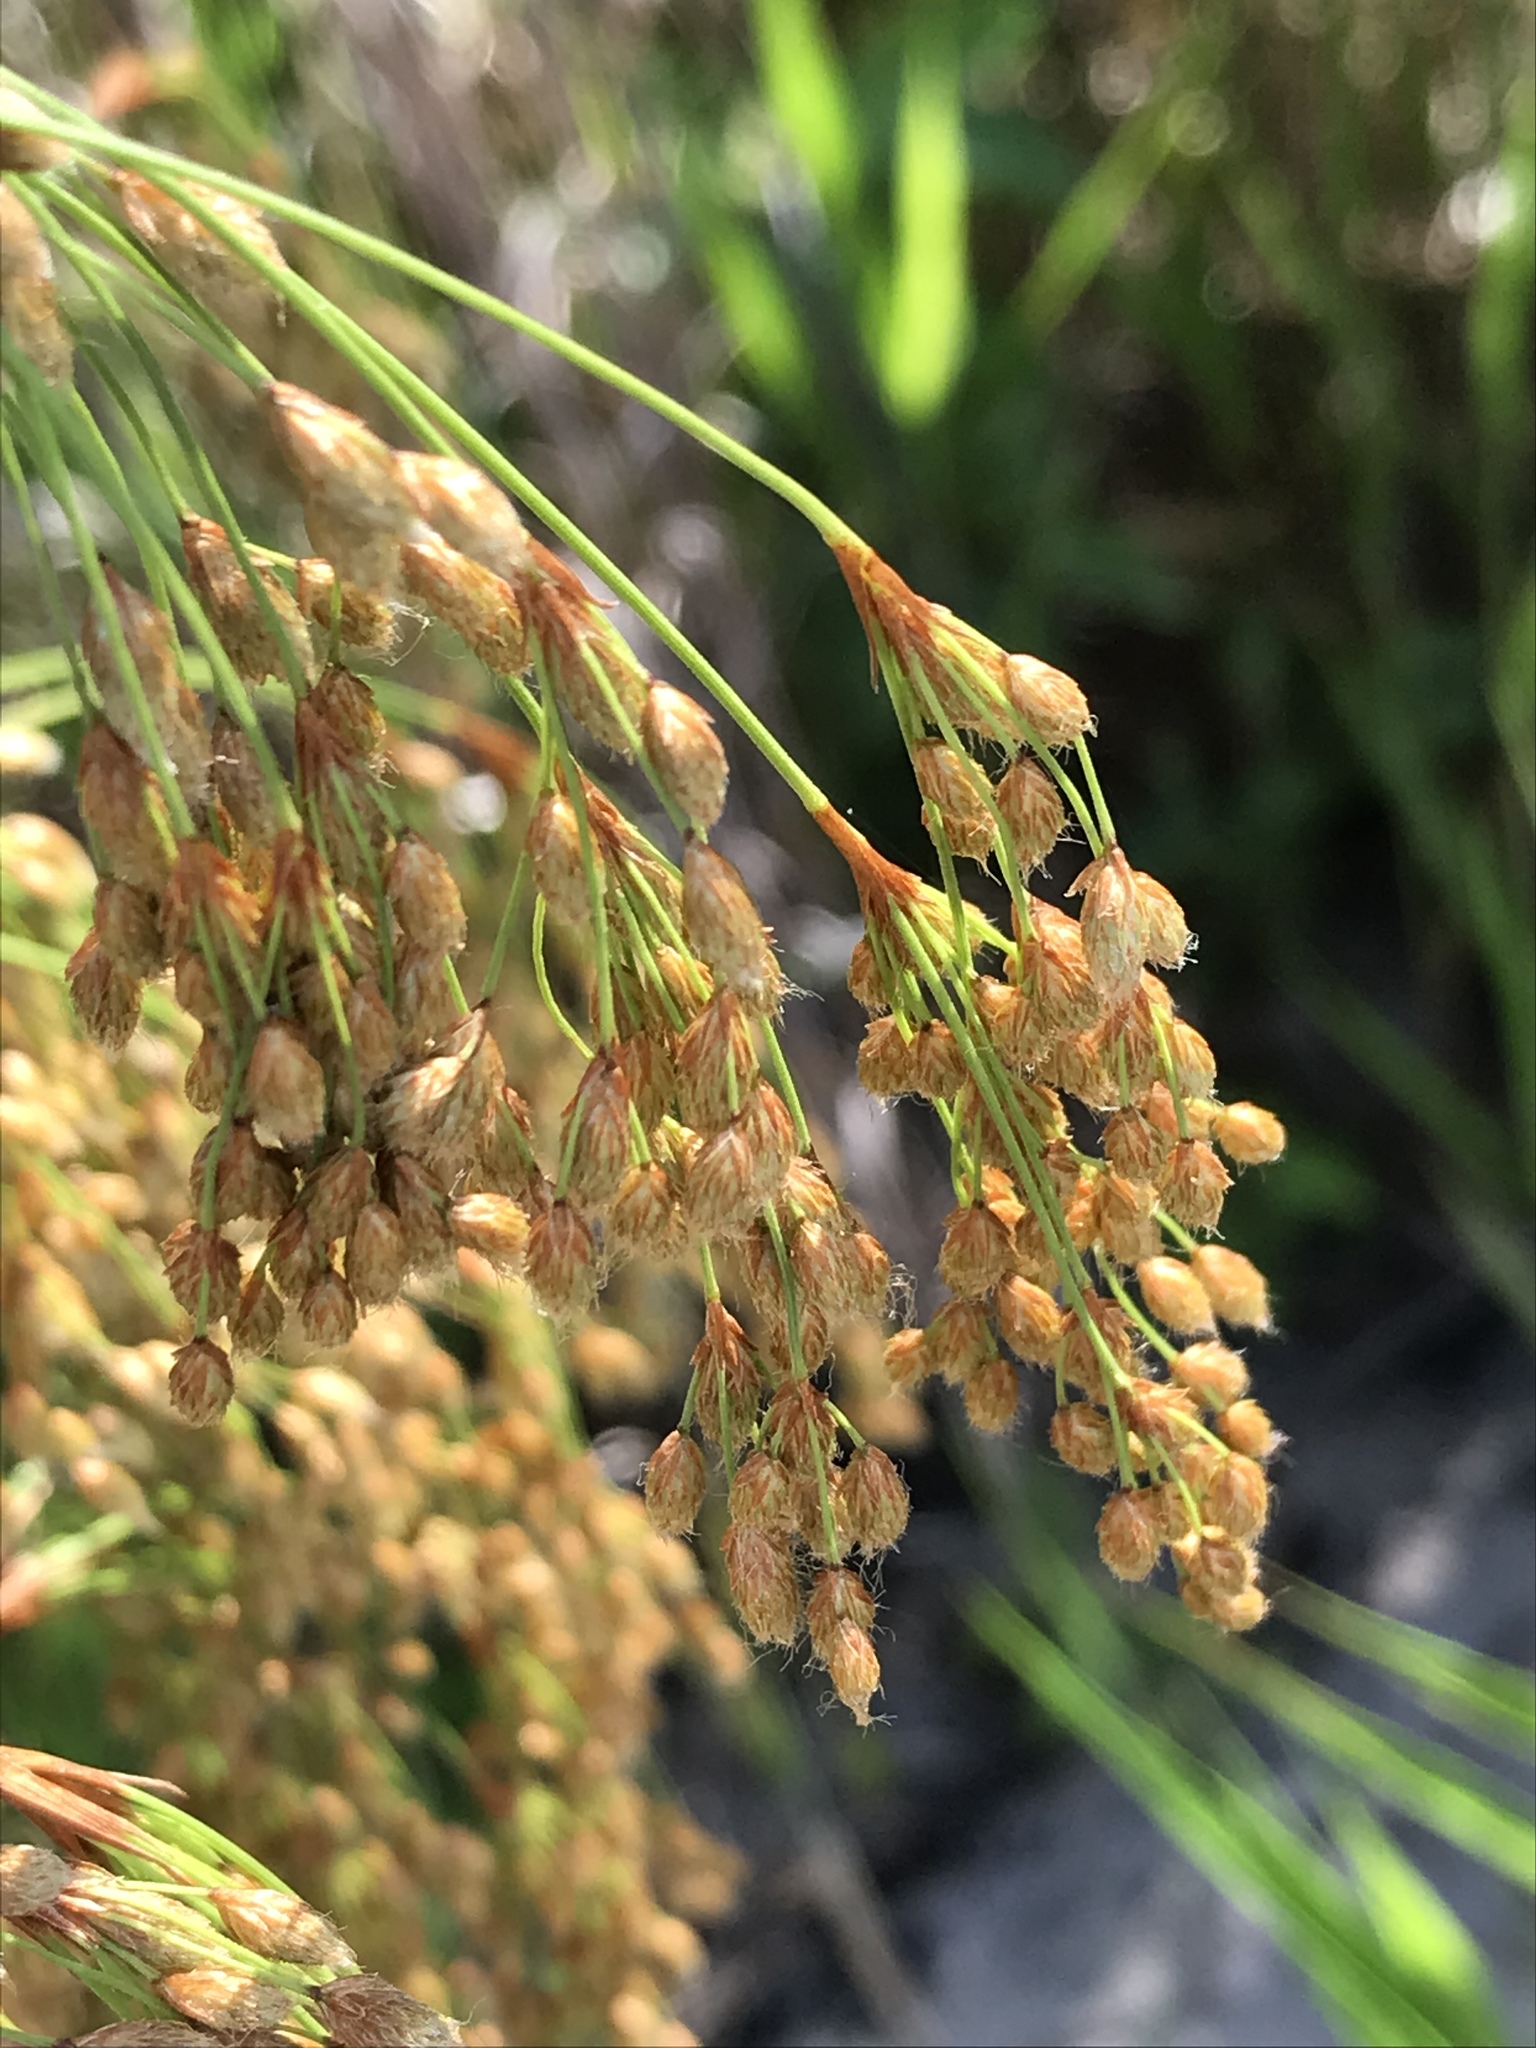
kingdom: Plantae
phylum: Tracheophyta
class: Liliopsida
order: Poales
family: Cyperaceae
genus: Scirpus
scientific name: Scirpus cyperinus
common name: Black-sheathed bulrush
